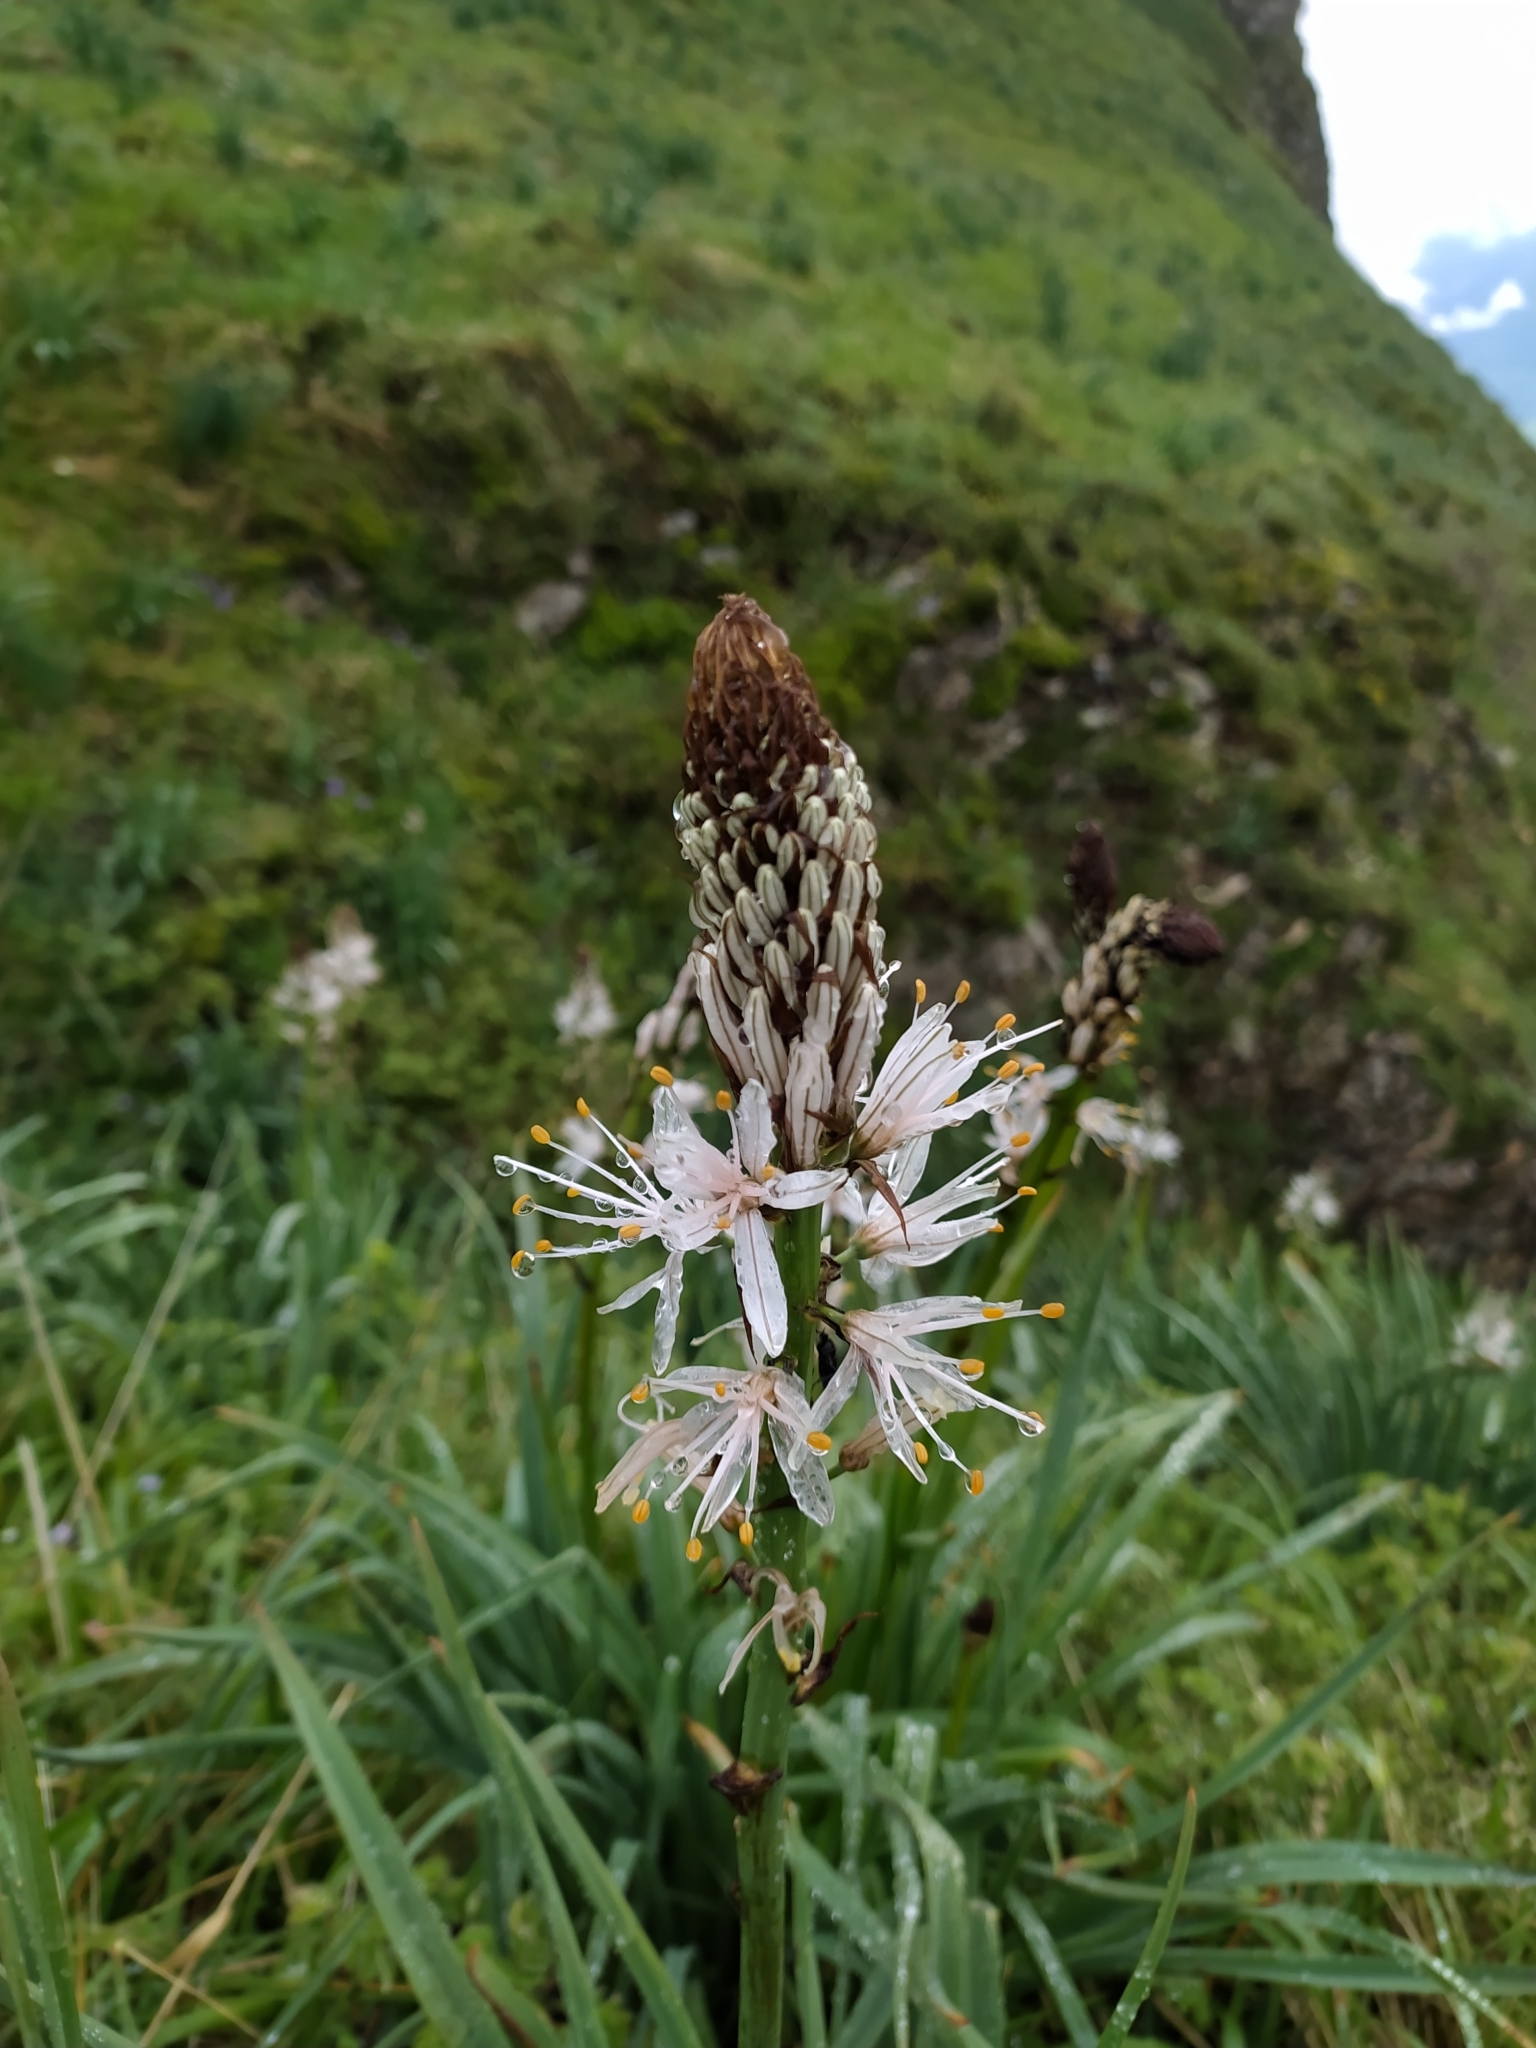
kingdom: Plantae
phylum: Tracheophyta
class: Liliopsida
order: Asparagales
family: Asphodelaceae
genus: Asphodelus
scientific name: Asphodelus albus
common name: White asphodel
